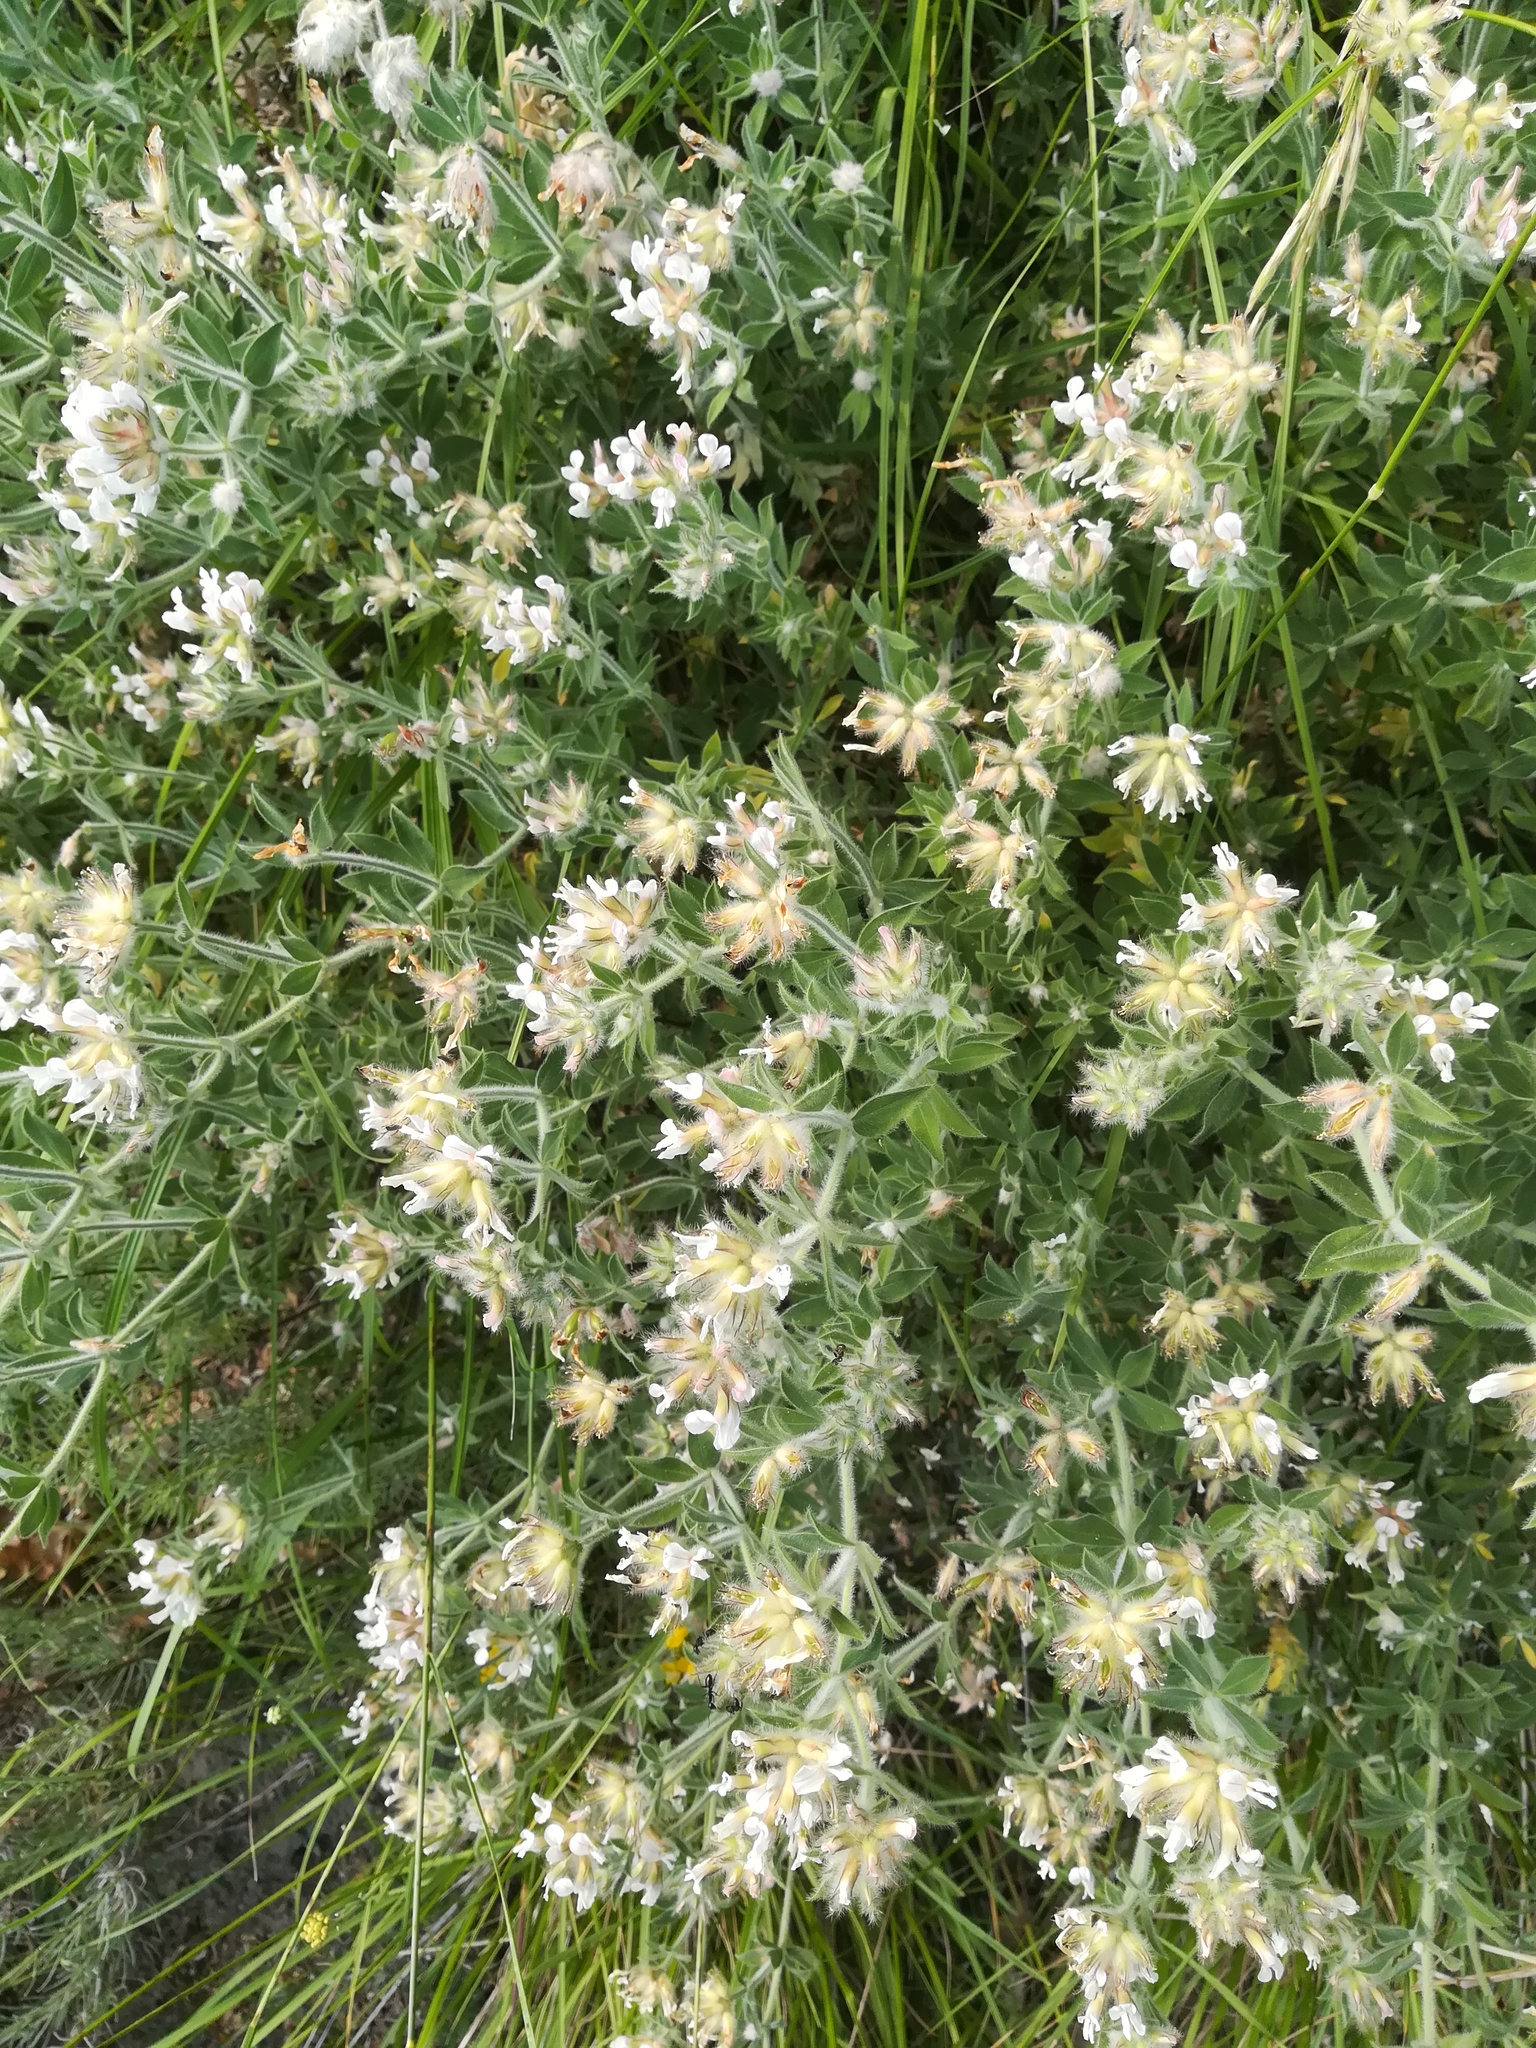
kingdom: Plantae
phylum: Tracheophyta
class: Magnoliopsida
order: Fabales
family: Fabaceae
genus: Lotus
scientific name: Lotus hirsutus
